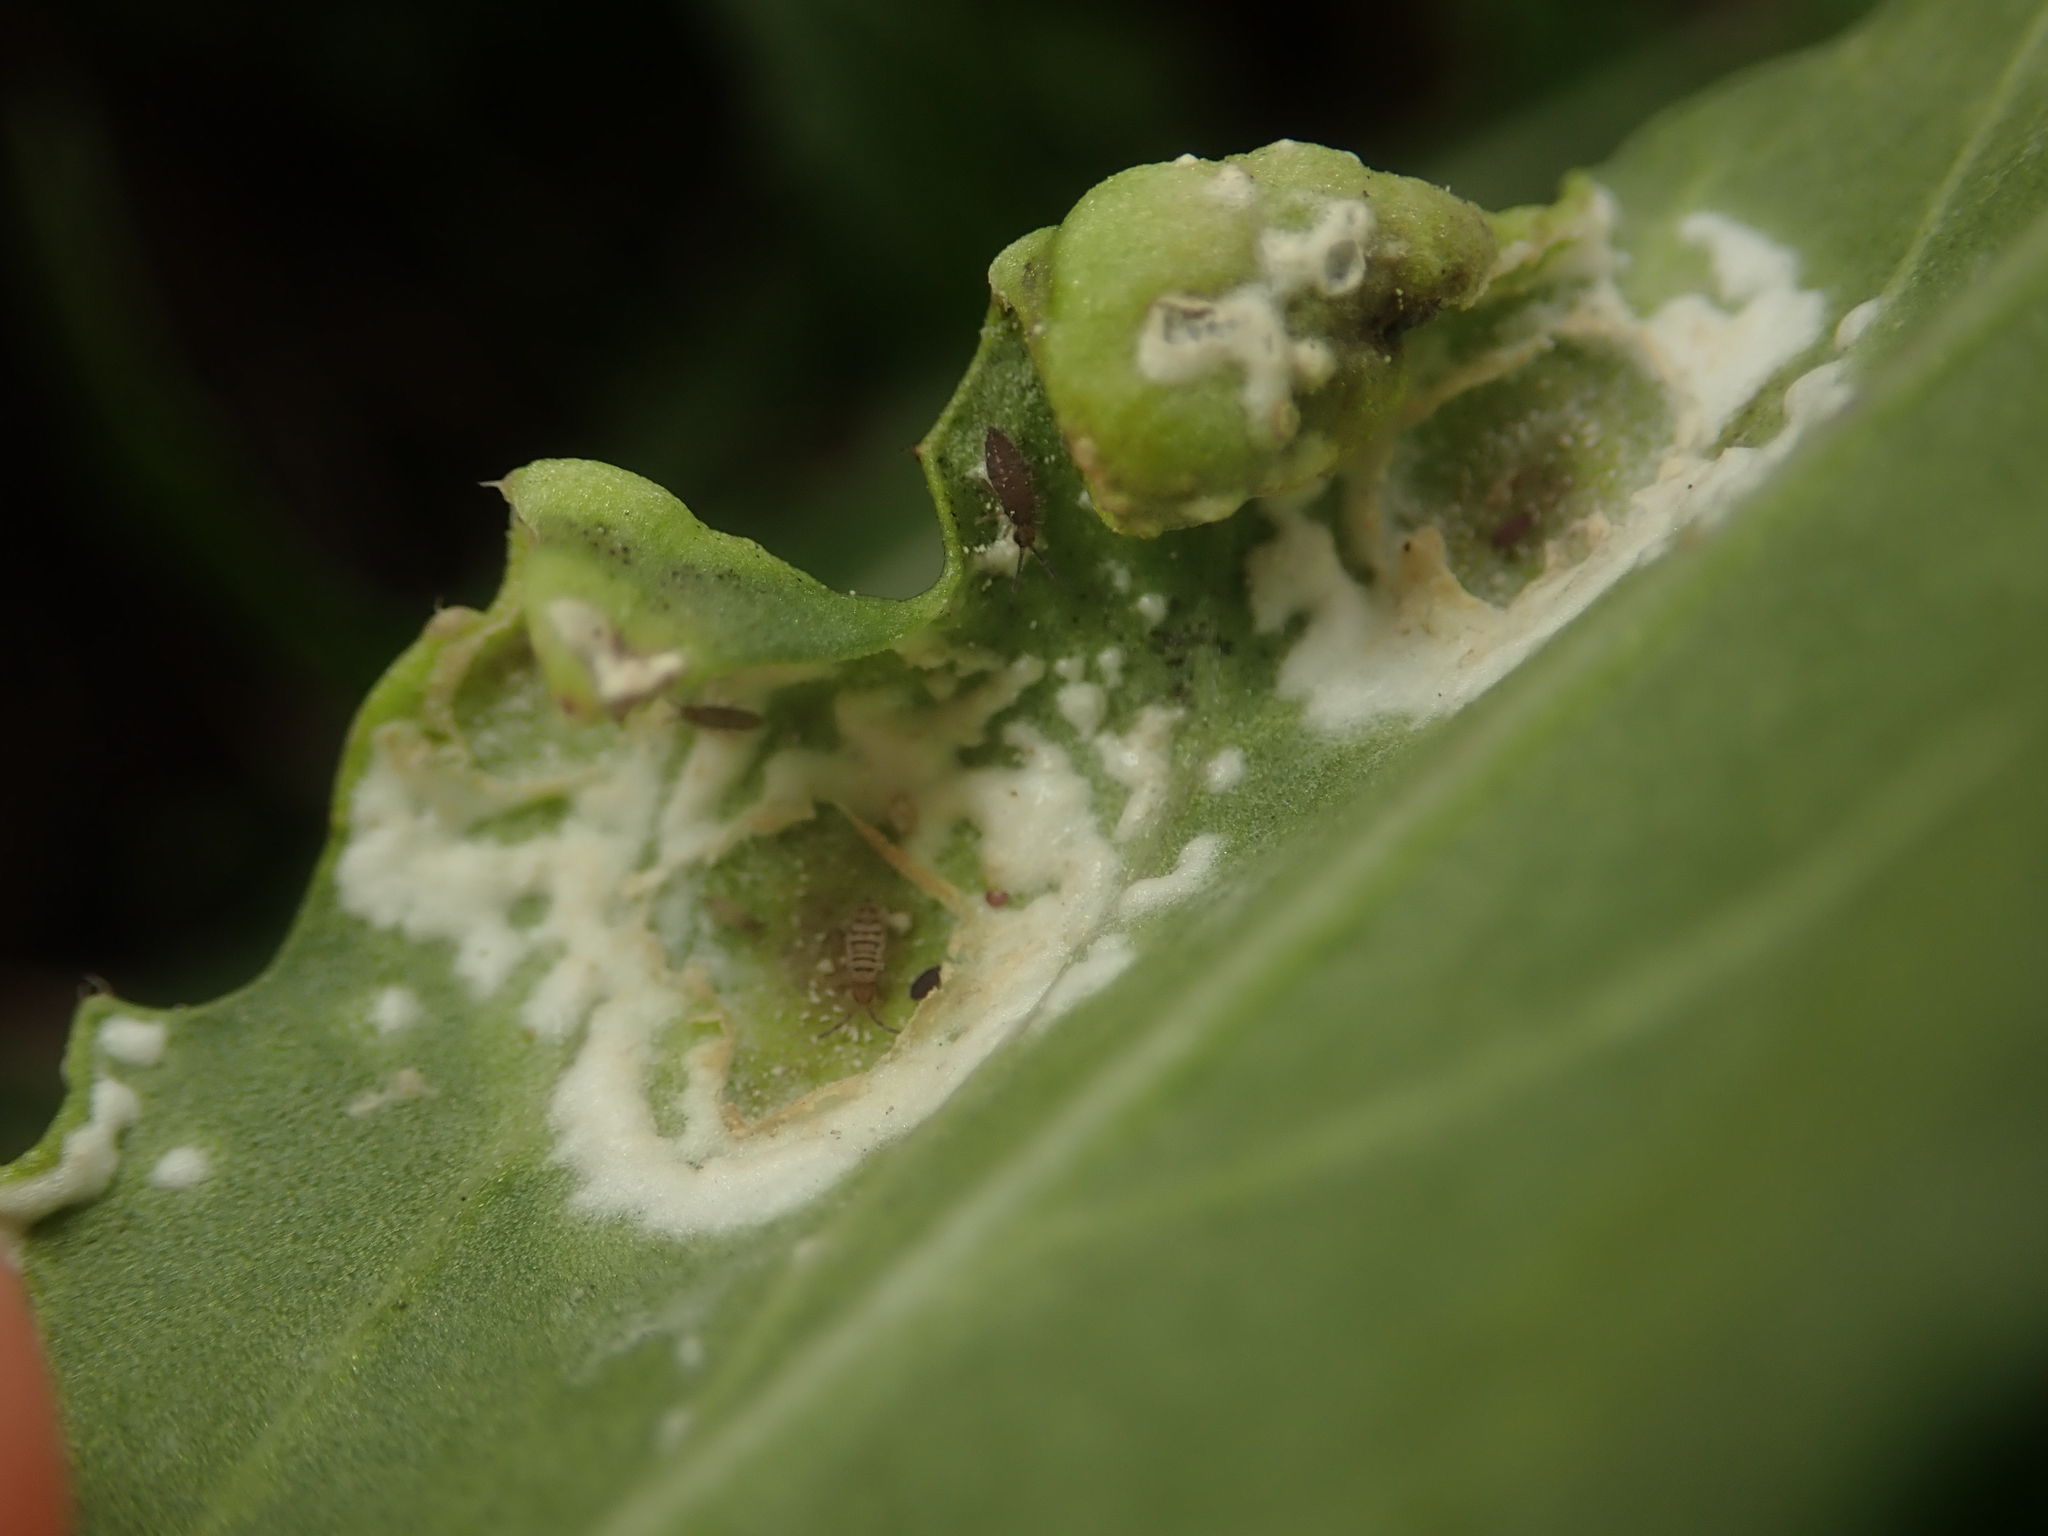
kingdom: Chromista
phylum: Oomycota
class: Peronosporea
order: Albuginales
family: Albuginaceae
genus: Albugo
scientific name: Albugo candida
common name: Crucifer white blister
